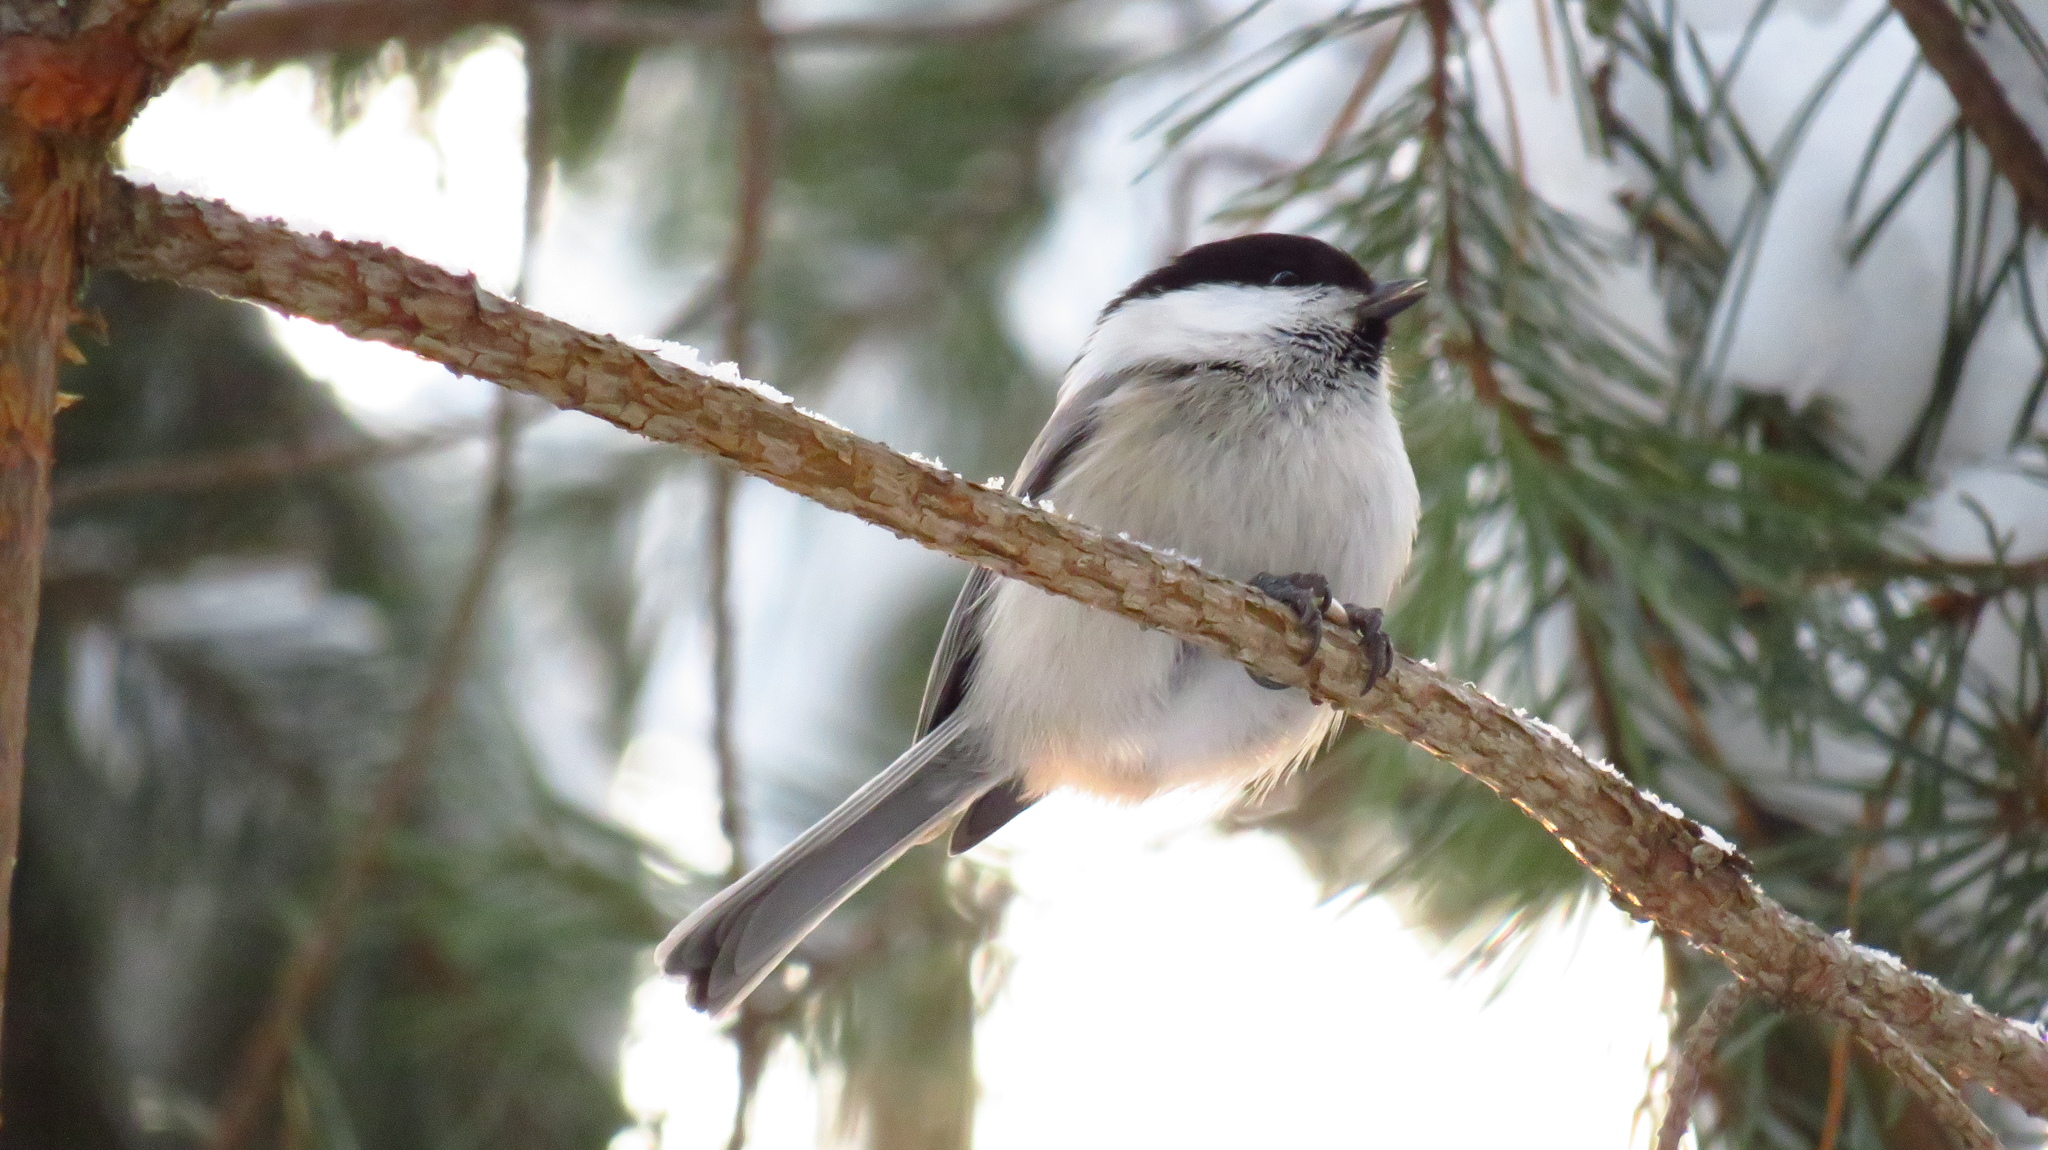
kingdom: Animalia
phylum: Chordata
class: Aves
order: Passeriformes
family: Paridae
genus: Poecile
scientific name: Poecile montanus
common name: Willow tit
